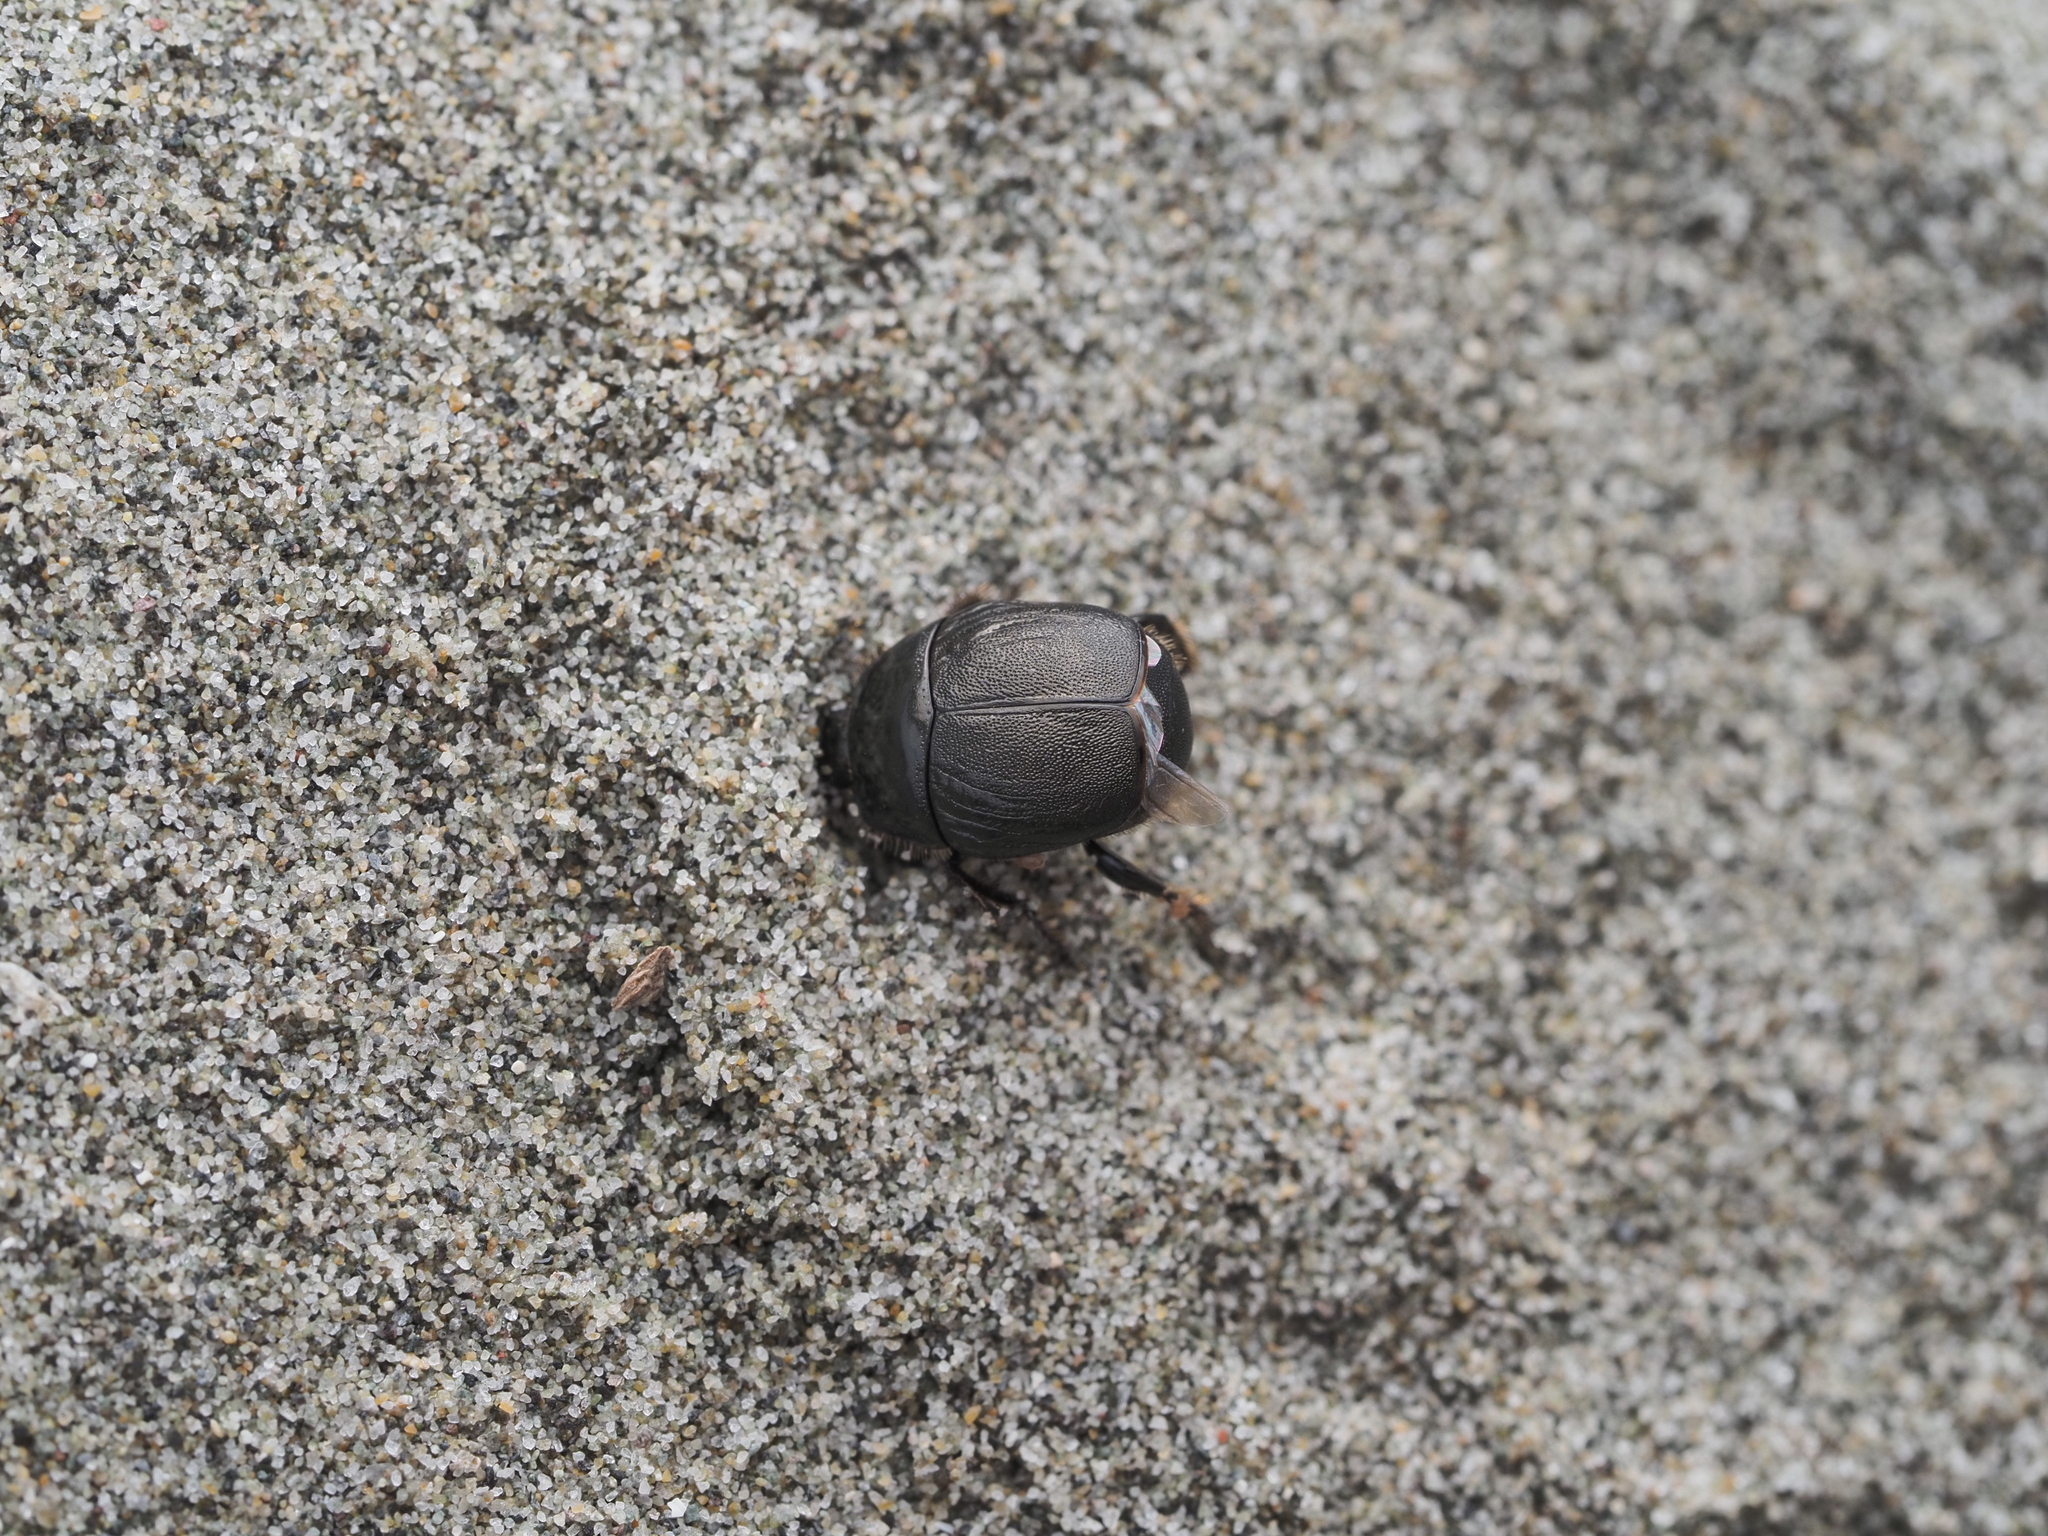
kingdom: Animalia
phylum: Arthropoda
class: Insecta
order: Coleoptera
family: Histeridae
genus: Saprinus
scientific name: Saprinus lepidulus
